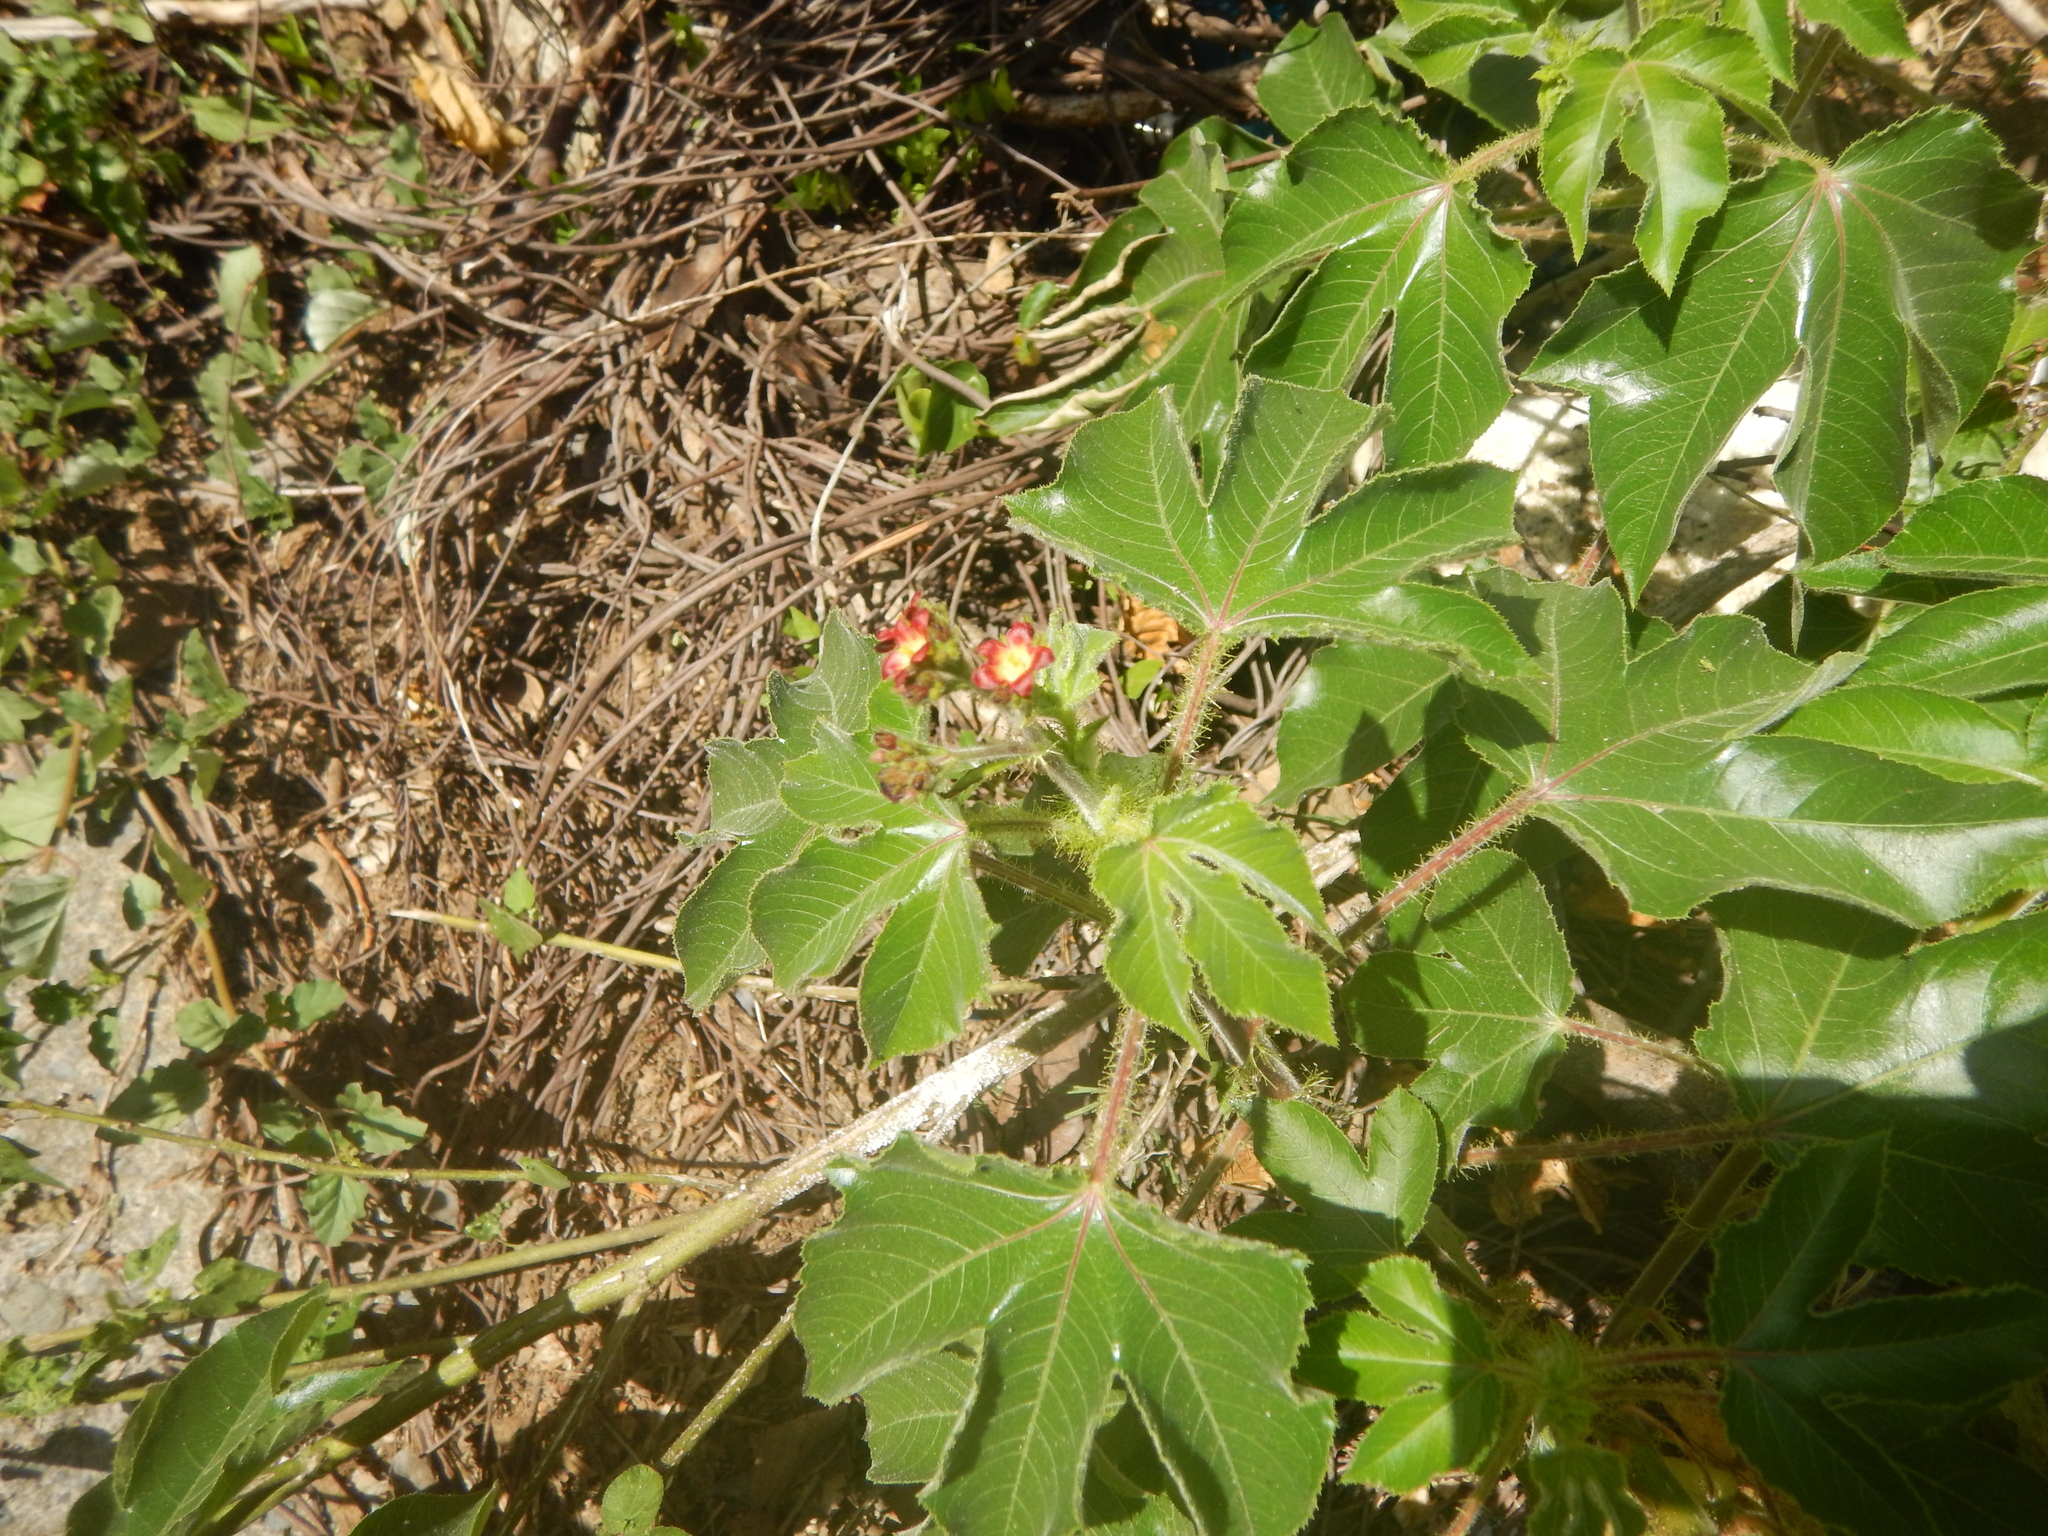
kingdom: Plantae
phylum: Tracheophyta
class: Magnoliopsida
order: Malpighiales
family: Euphorbiaceae
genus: Jatropha
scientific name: Jatropha gossypiifolia
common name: Bellyache bush
